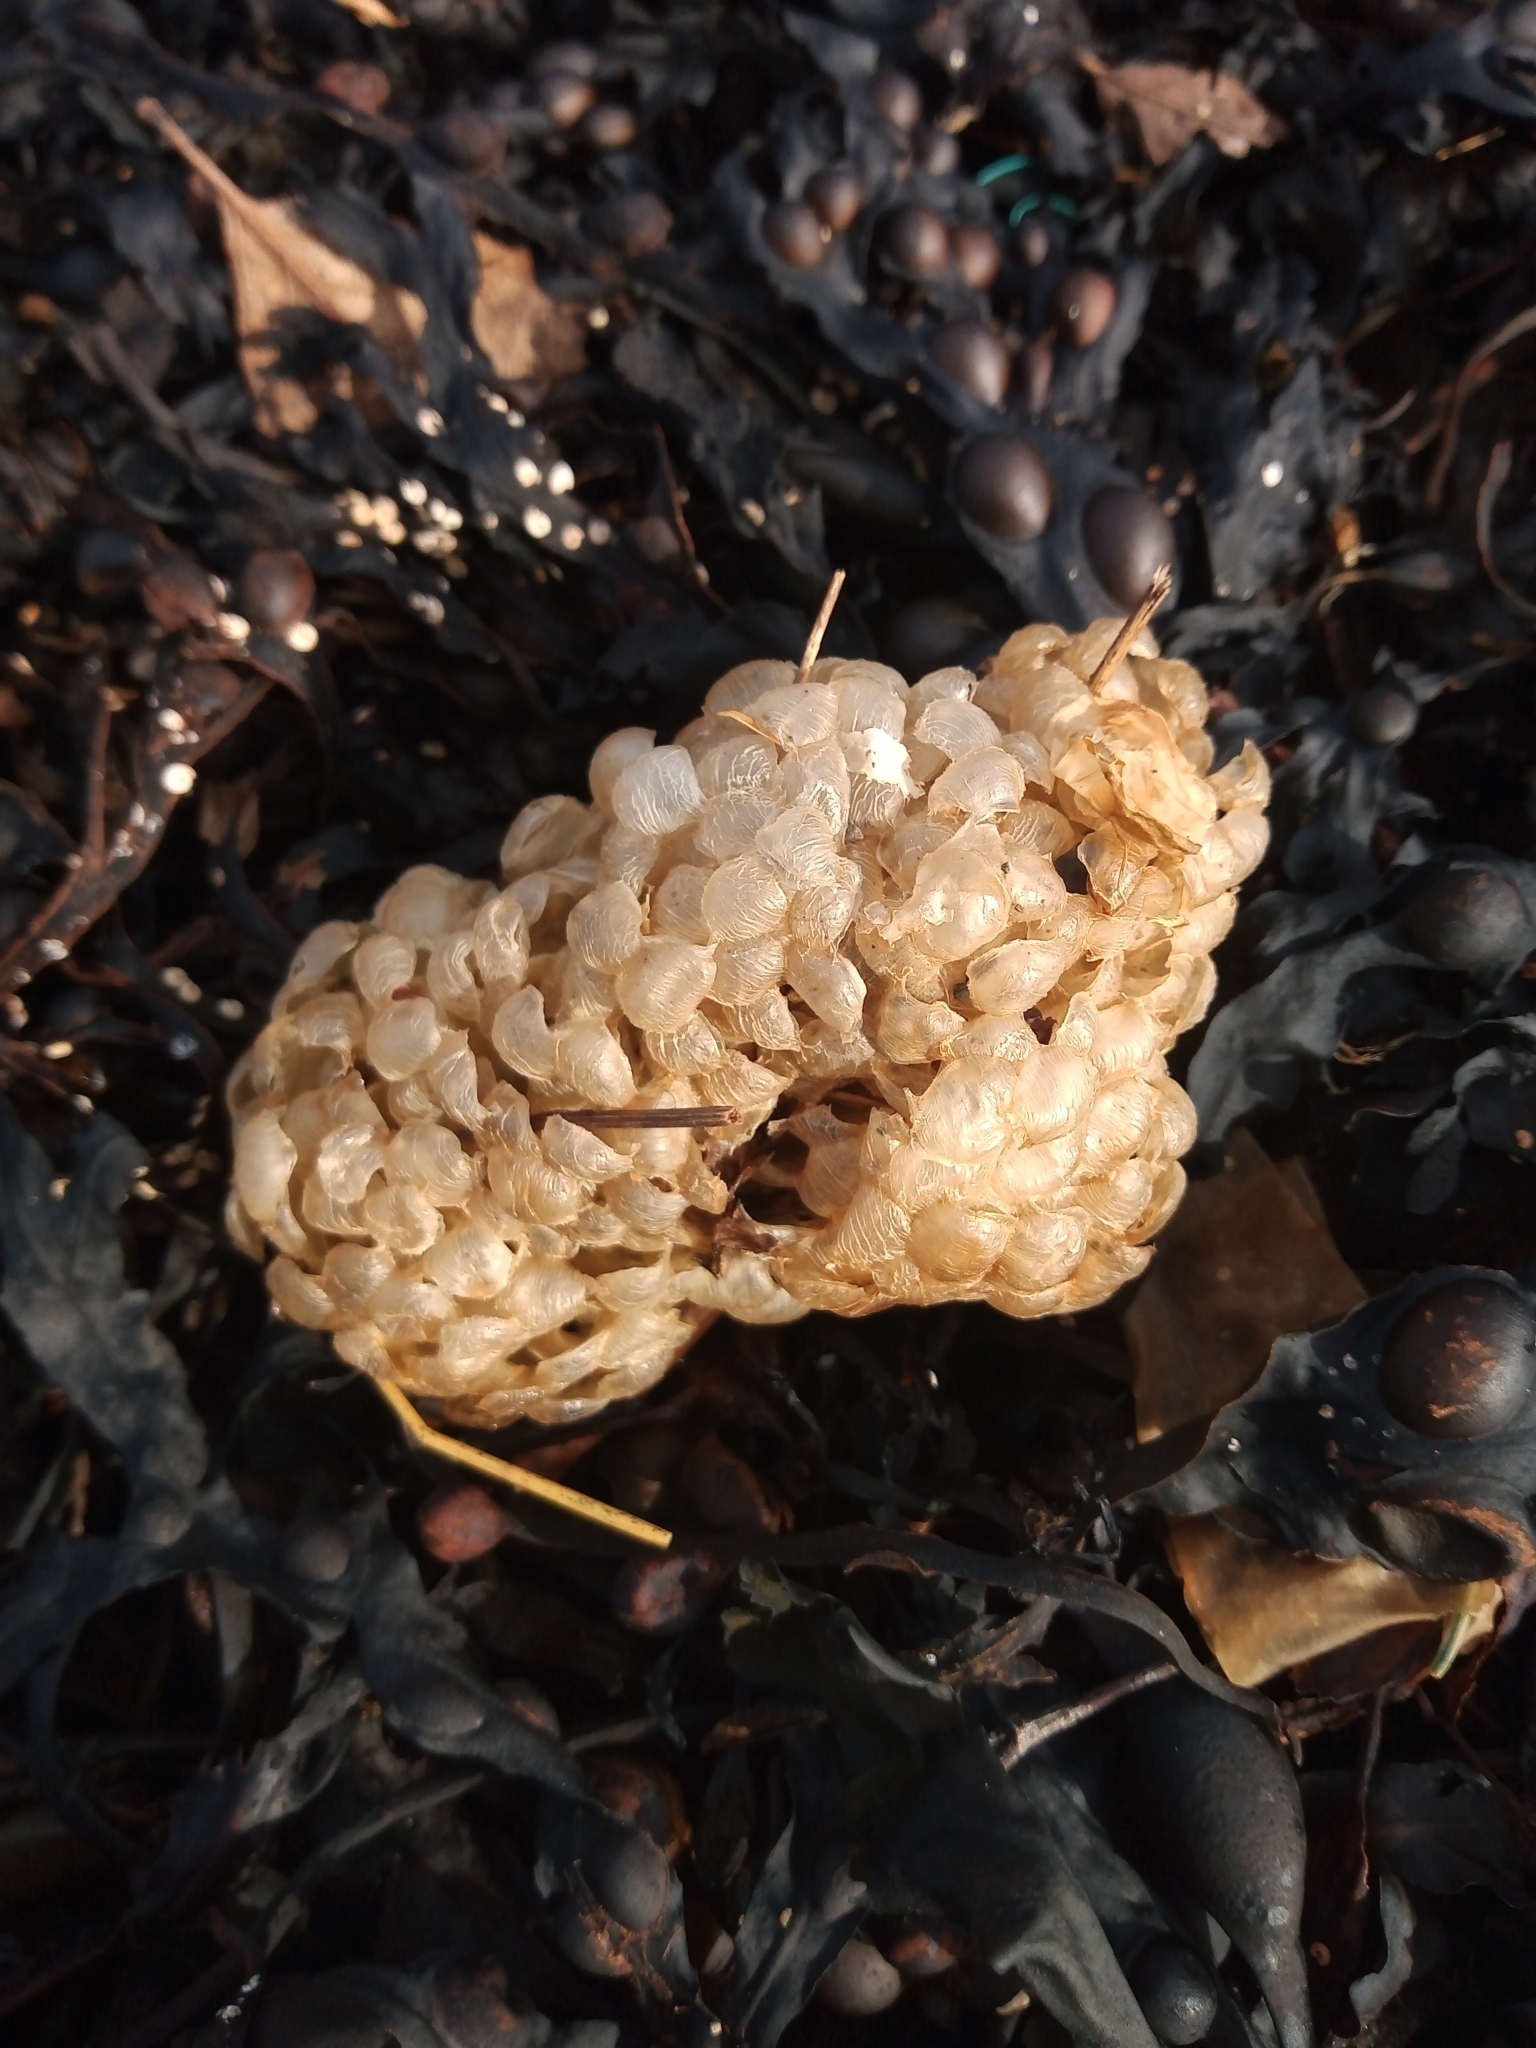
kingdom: Animalia
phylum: Mollusca
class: Gastropoda
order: Neogastropoda
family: Buccinidae
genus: Buccinum
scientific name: Buccinum undatum
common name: Common whelk
